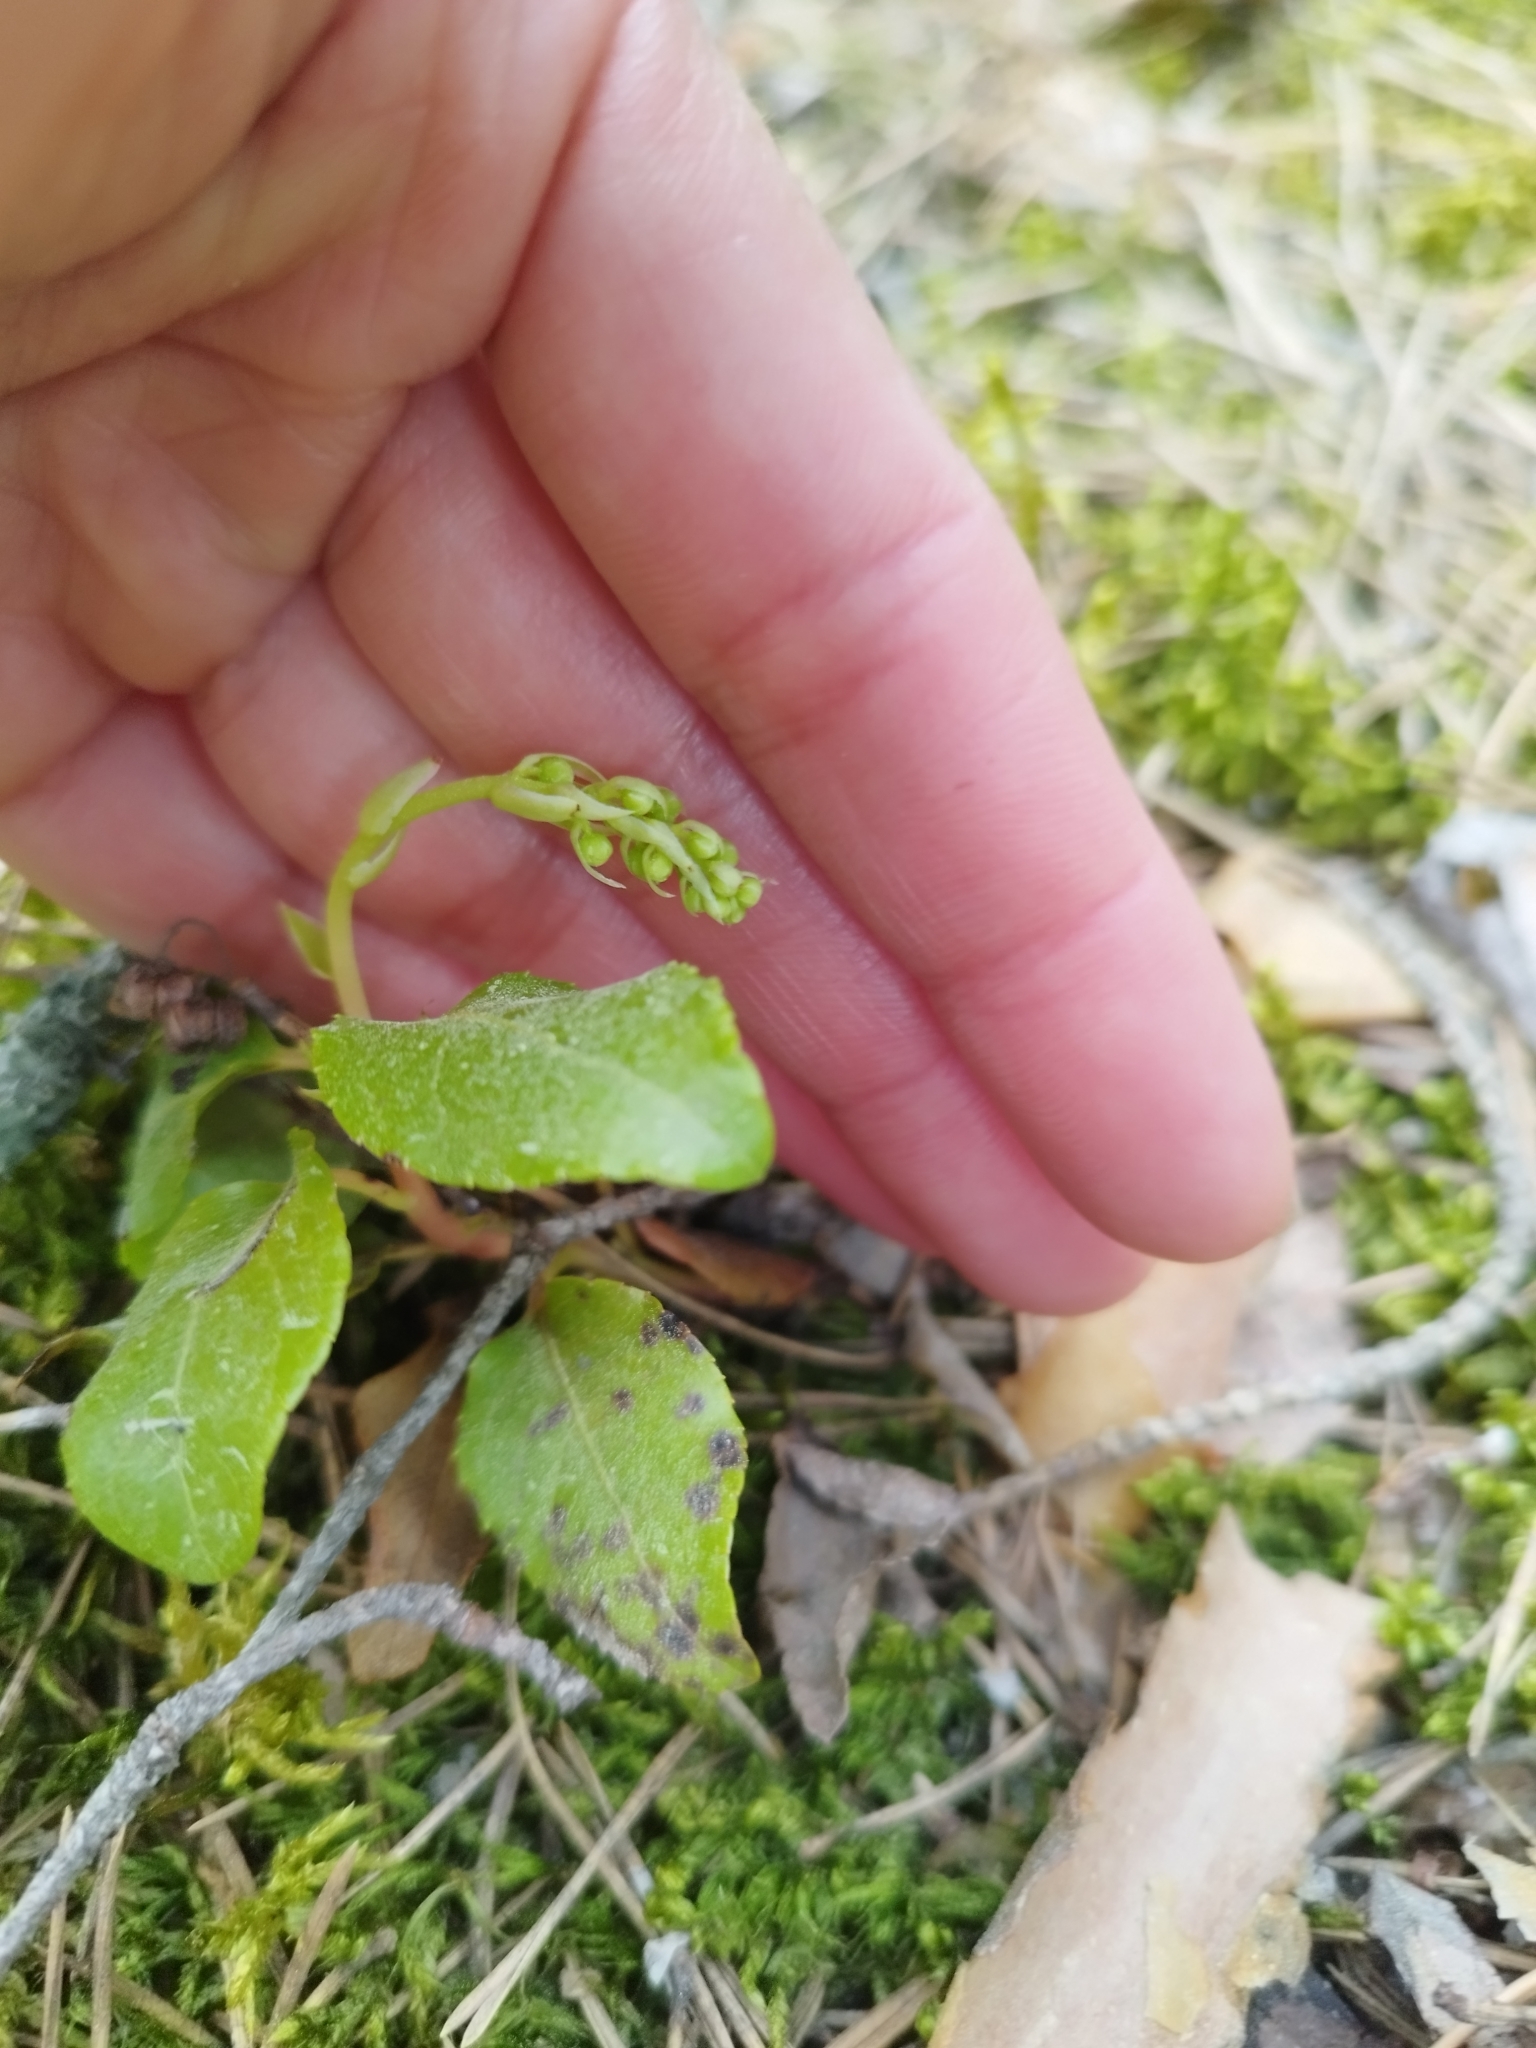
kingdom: Plantae
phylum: Tracheophyta
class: Magnoliopsida
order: Ericales
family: Ericaceae
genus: Orthilia
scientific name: Orthilia secunda
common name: One-sided orthilia
